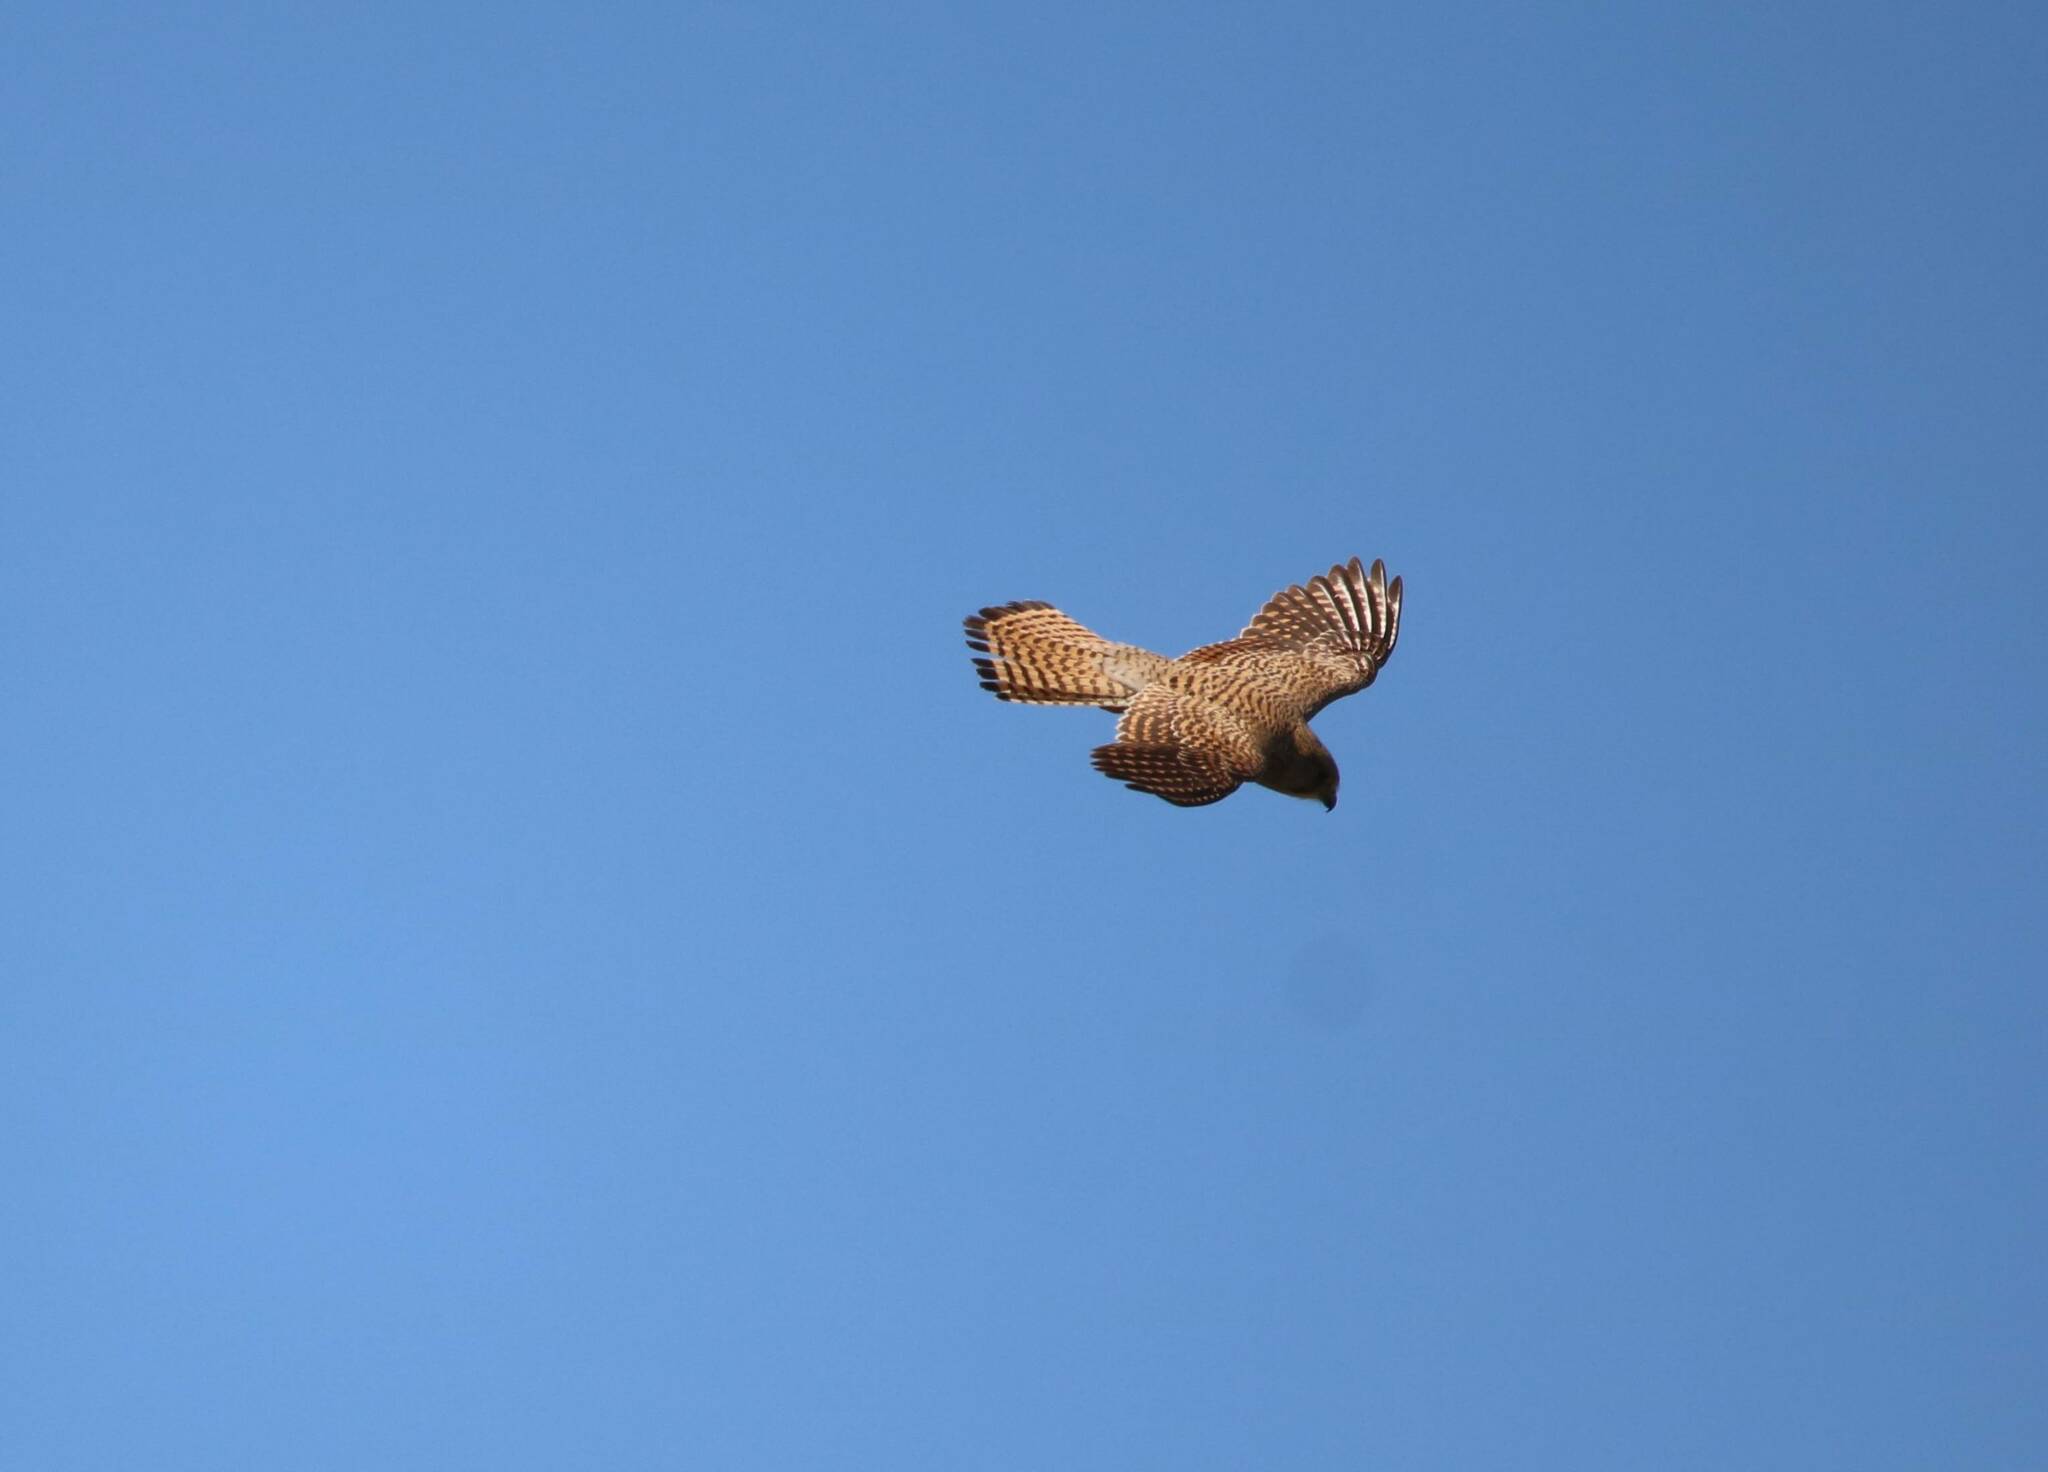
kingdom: Animalia
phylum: Chordata
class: Aves
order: Falconiformes
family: Falconidae
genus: Falco
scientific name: Falco tinnunculus
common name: Common kestrel
